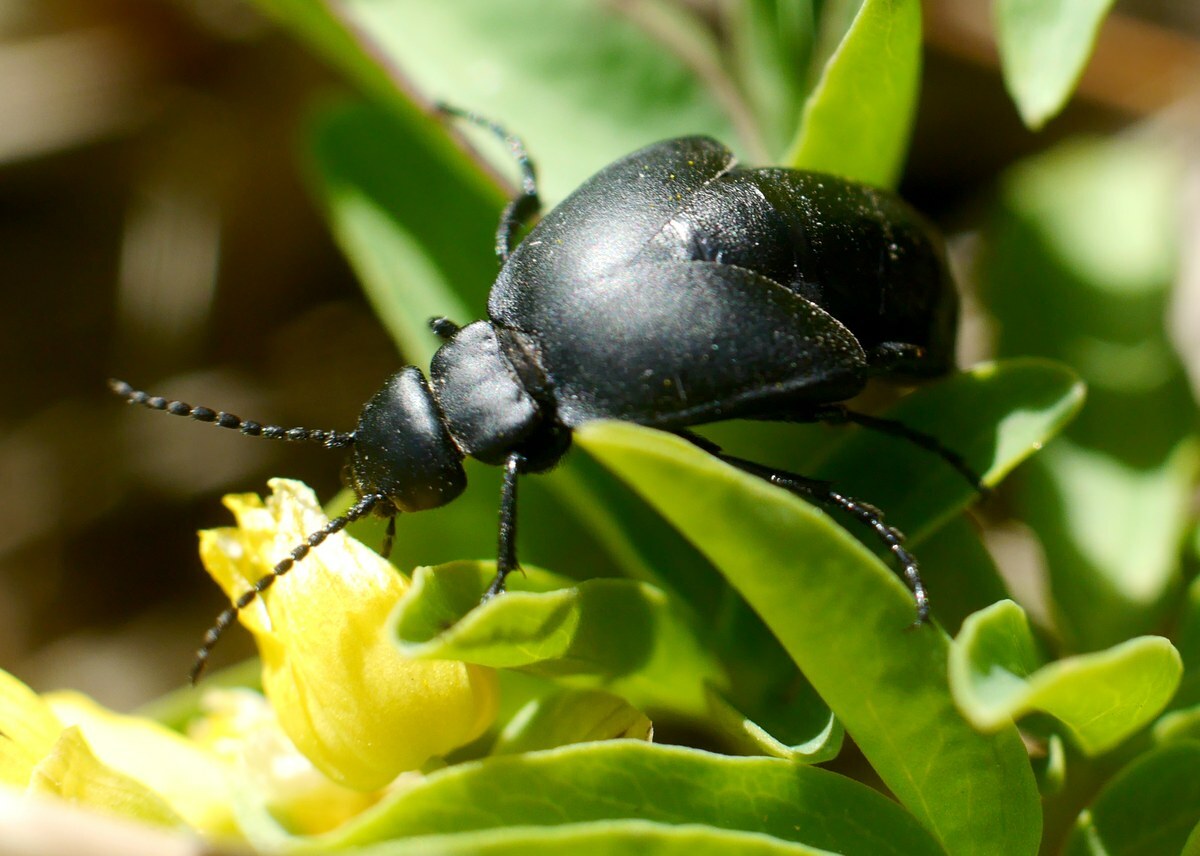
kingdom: Animalia
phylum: Arthropoda
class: Insecta
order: Coleoptera
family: Meloidae
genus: Meloe
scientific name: Meloe uralensis
